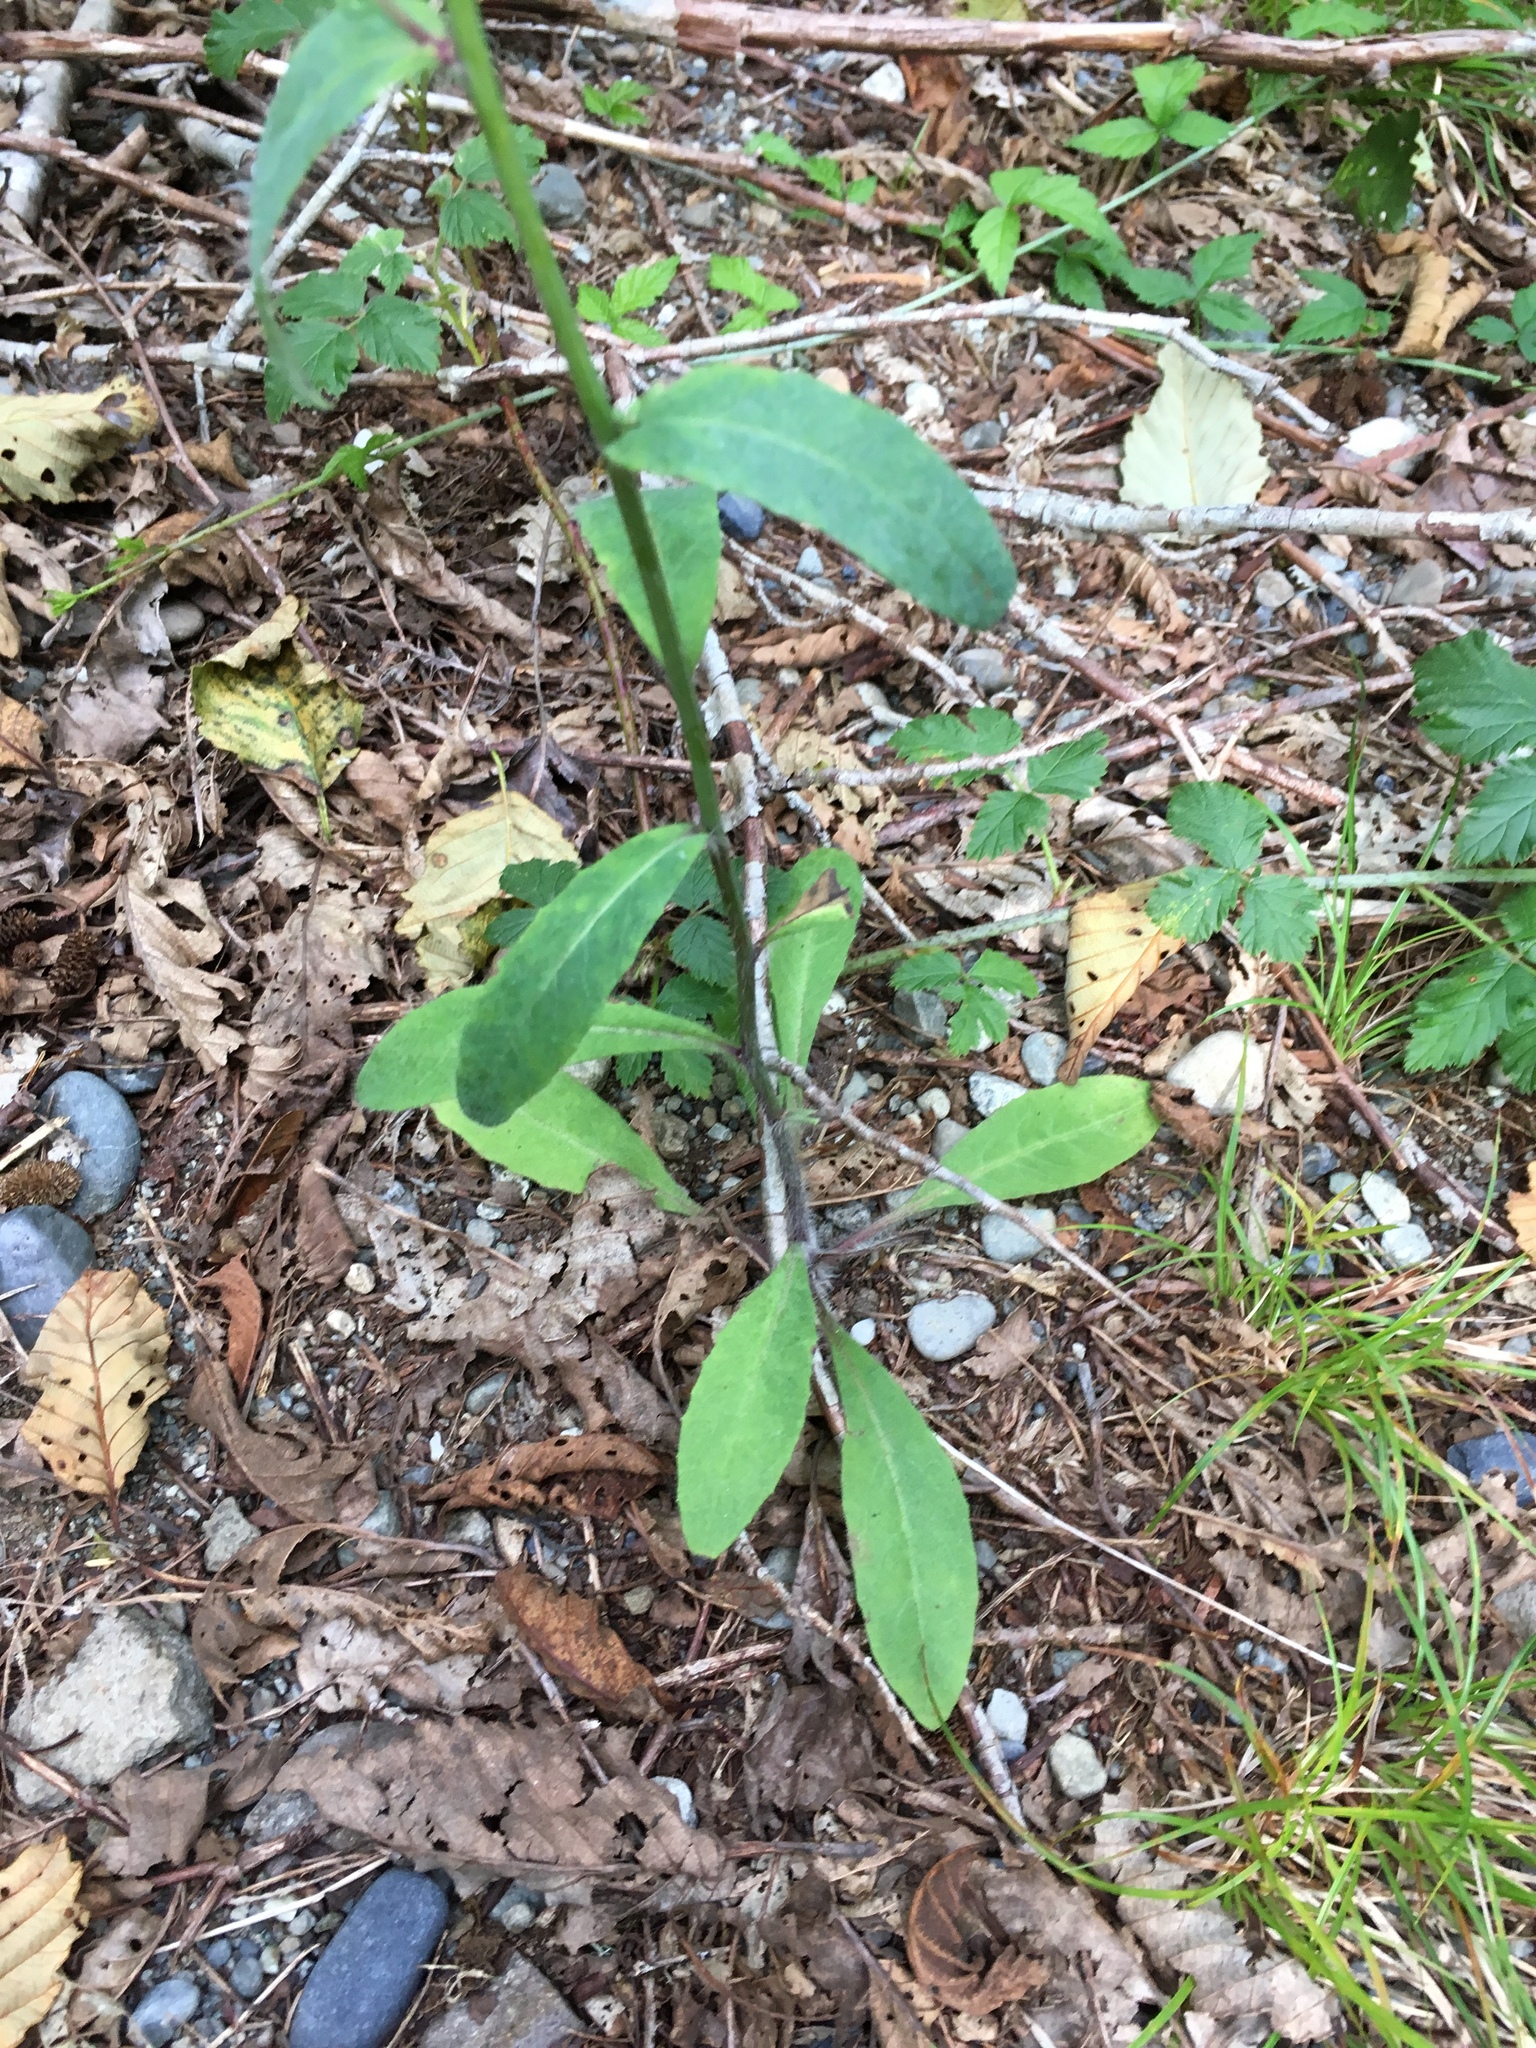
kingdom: Plantae
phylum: Tracheophyta
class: Magnoliopsida
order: Asterales
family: Asteraceae
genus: Hieracium
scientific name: Hieracium albiflorum
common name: White hawkweed
